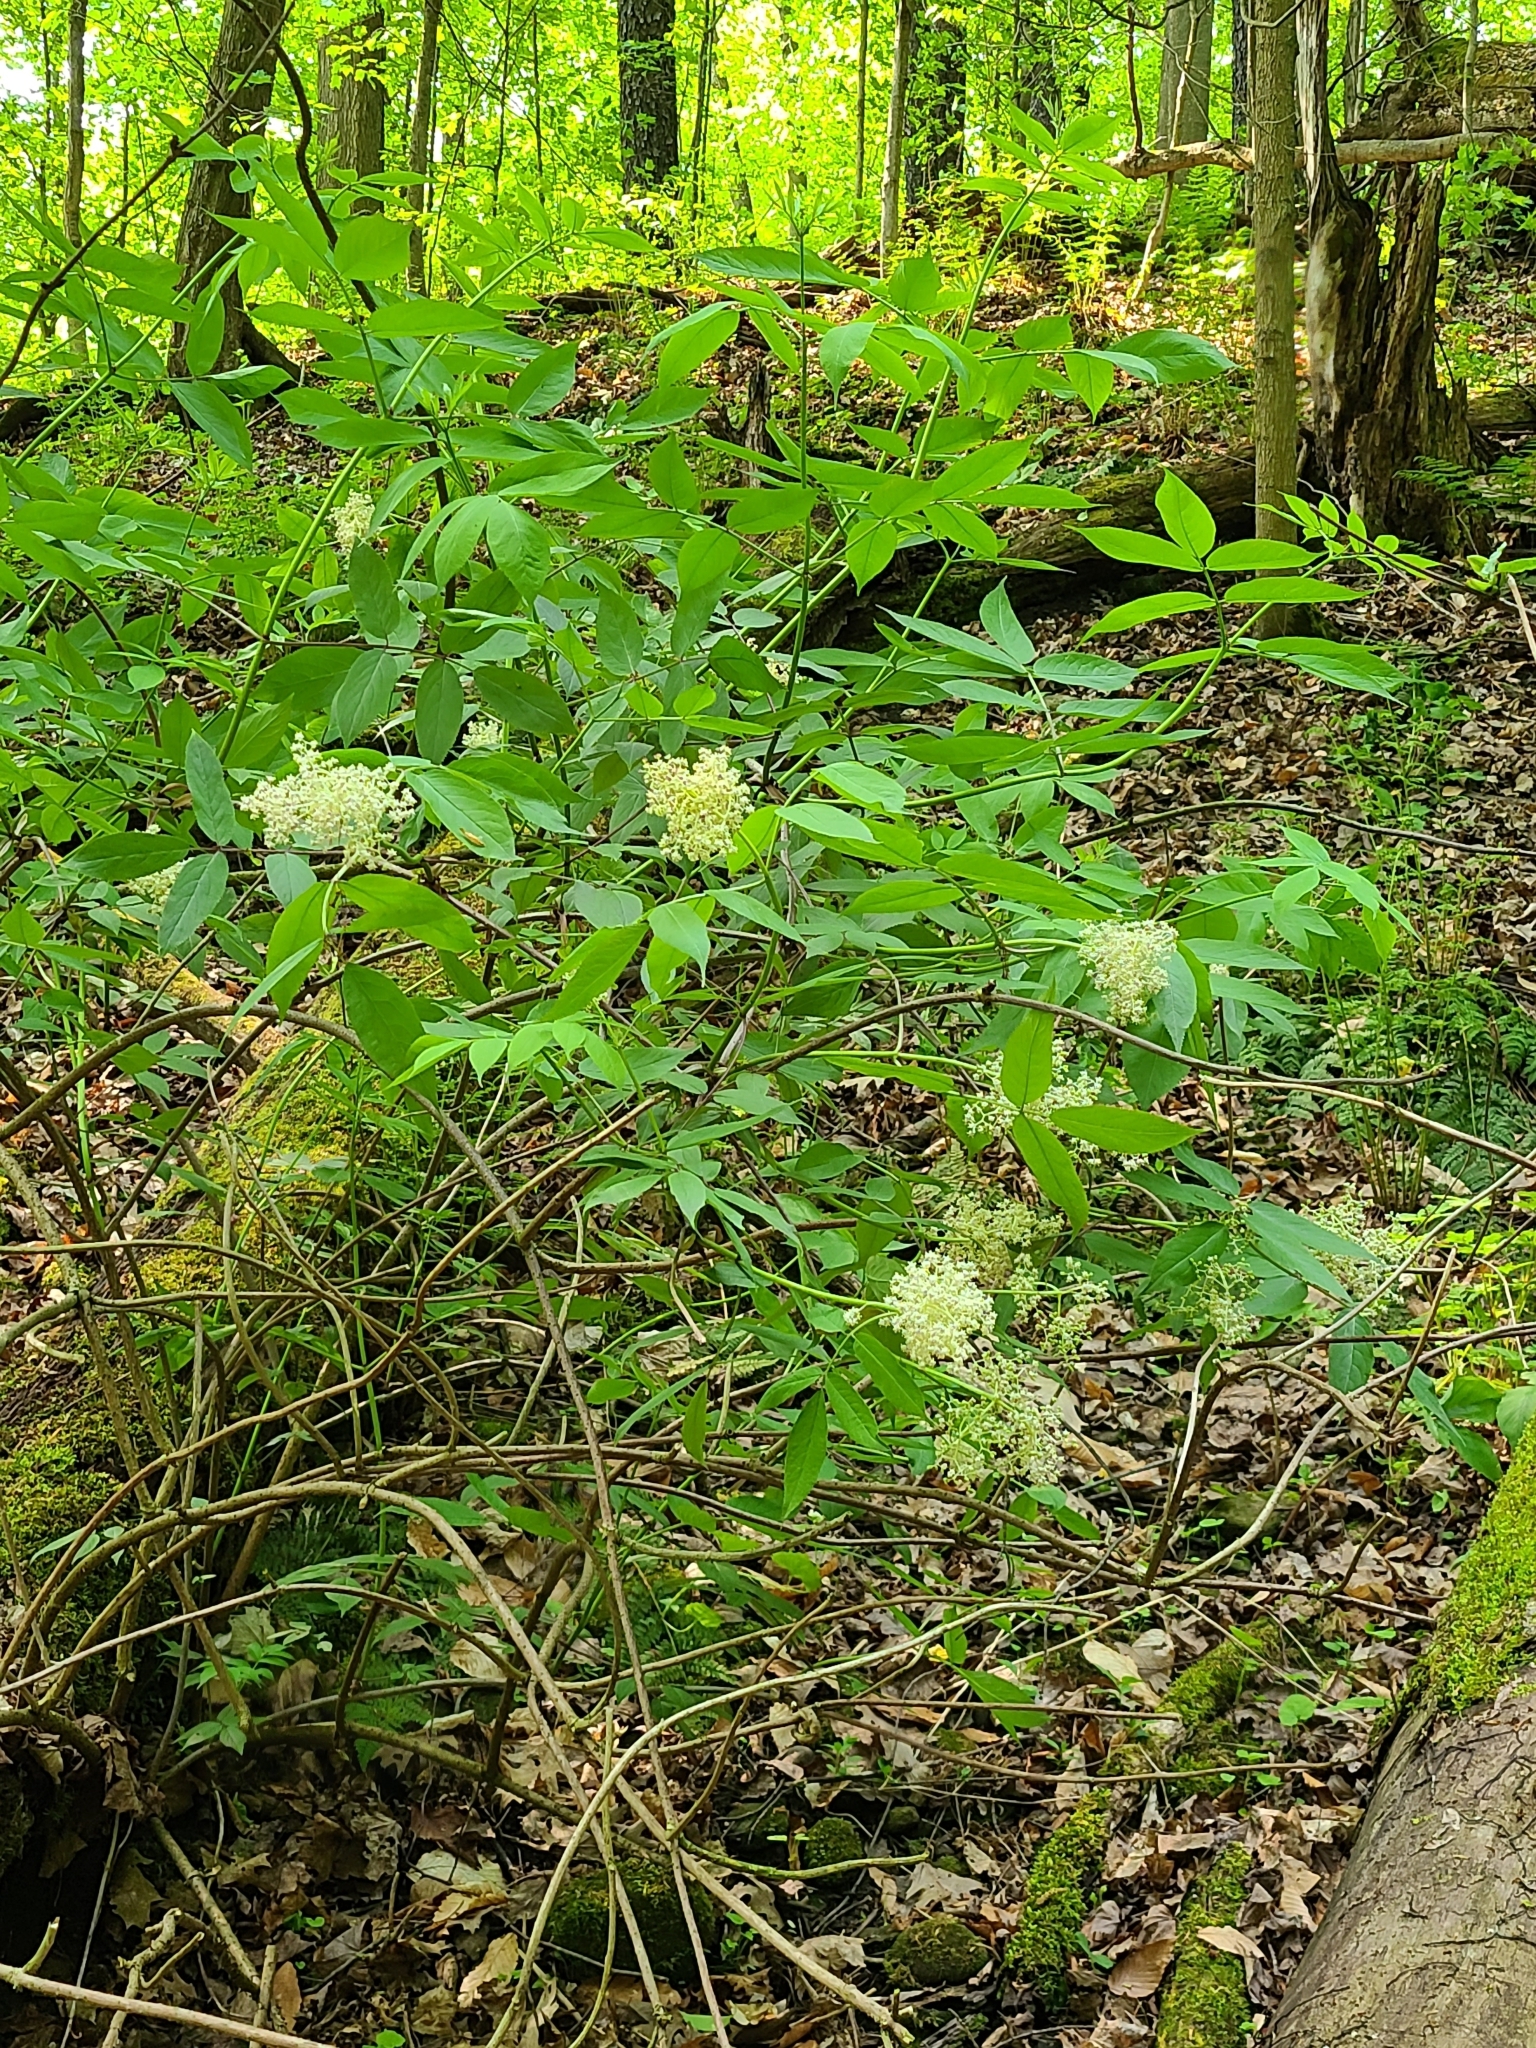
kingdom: Plantae
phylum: Tracheophyta
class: Magnoliopsida
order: Dipsacales
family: Viburnaceae
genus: Sambucus
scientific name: Sambucus racemosa
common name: Red-berried elder
